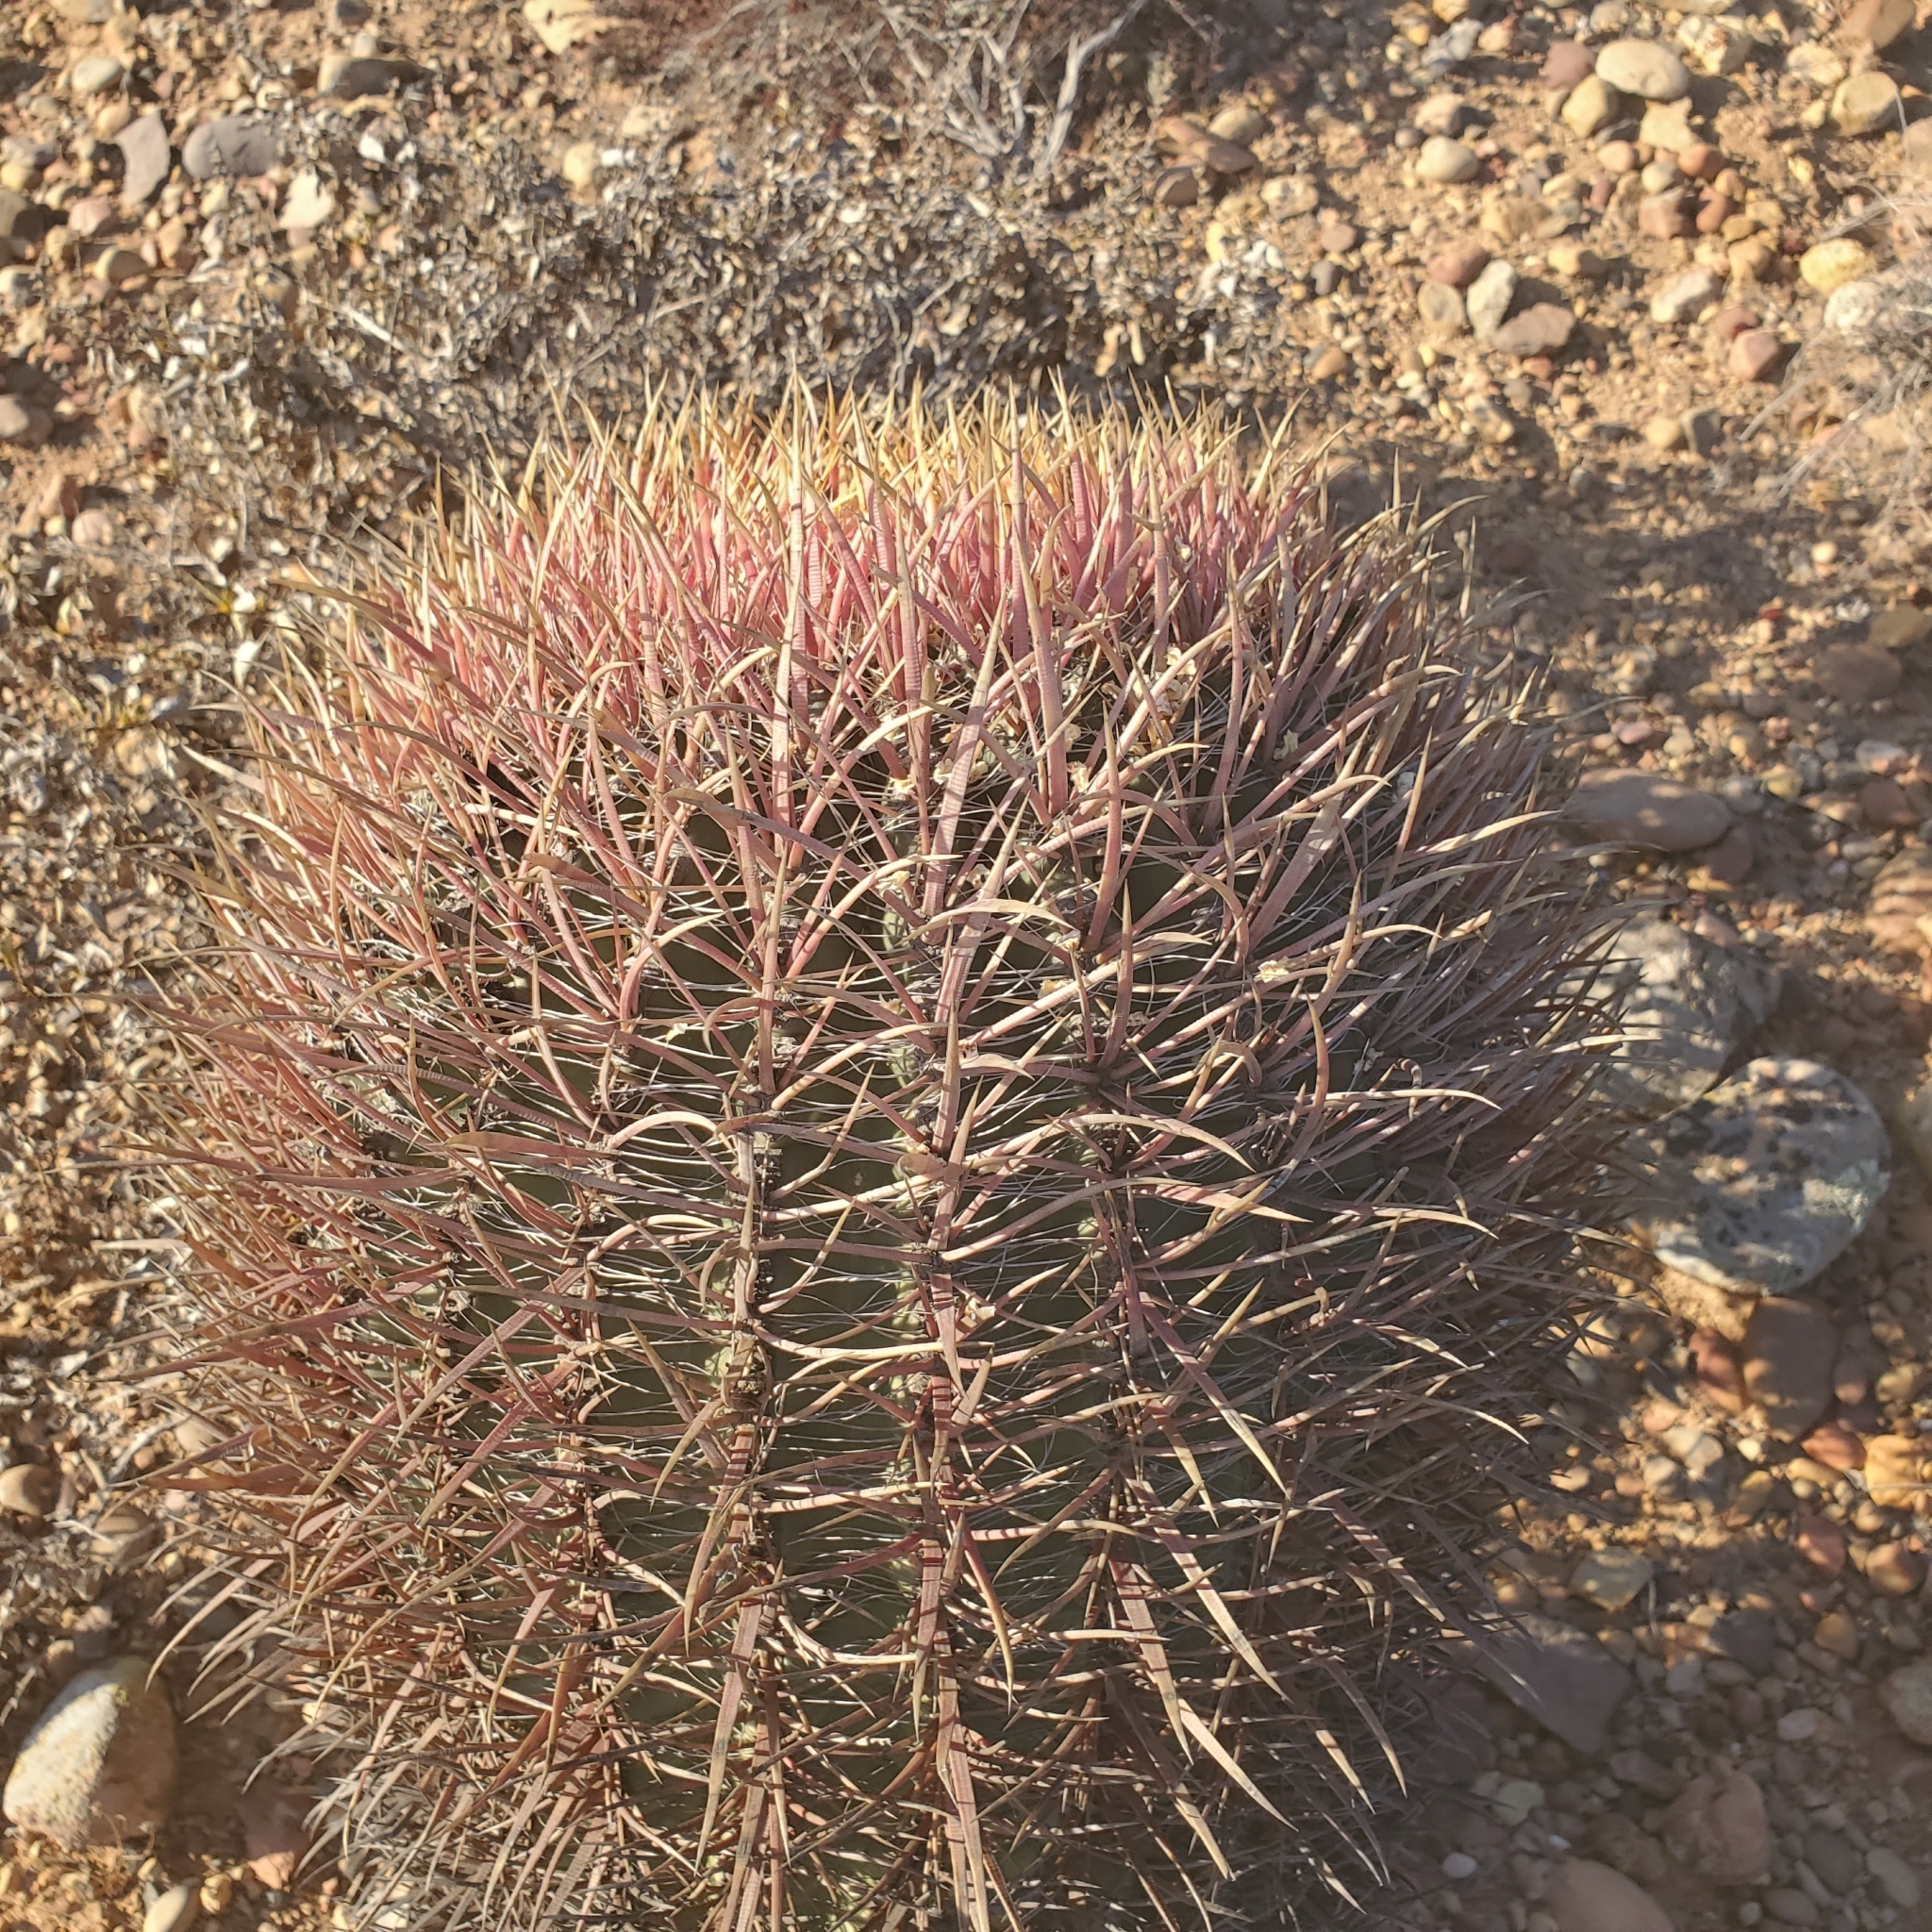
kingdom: Plantae
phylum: Tracheophyta
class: Magnoliopsida
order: Caryophyllales
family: Cactaceae
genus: Ferocactus
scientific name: Ferocactus gracilis
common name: Fire barrel cactus
